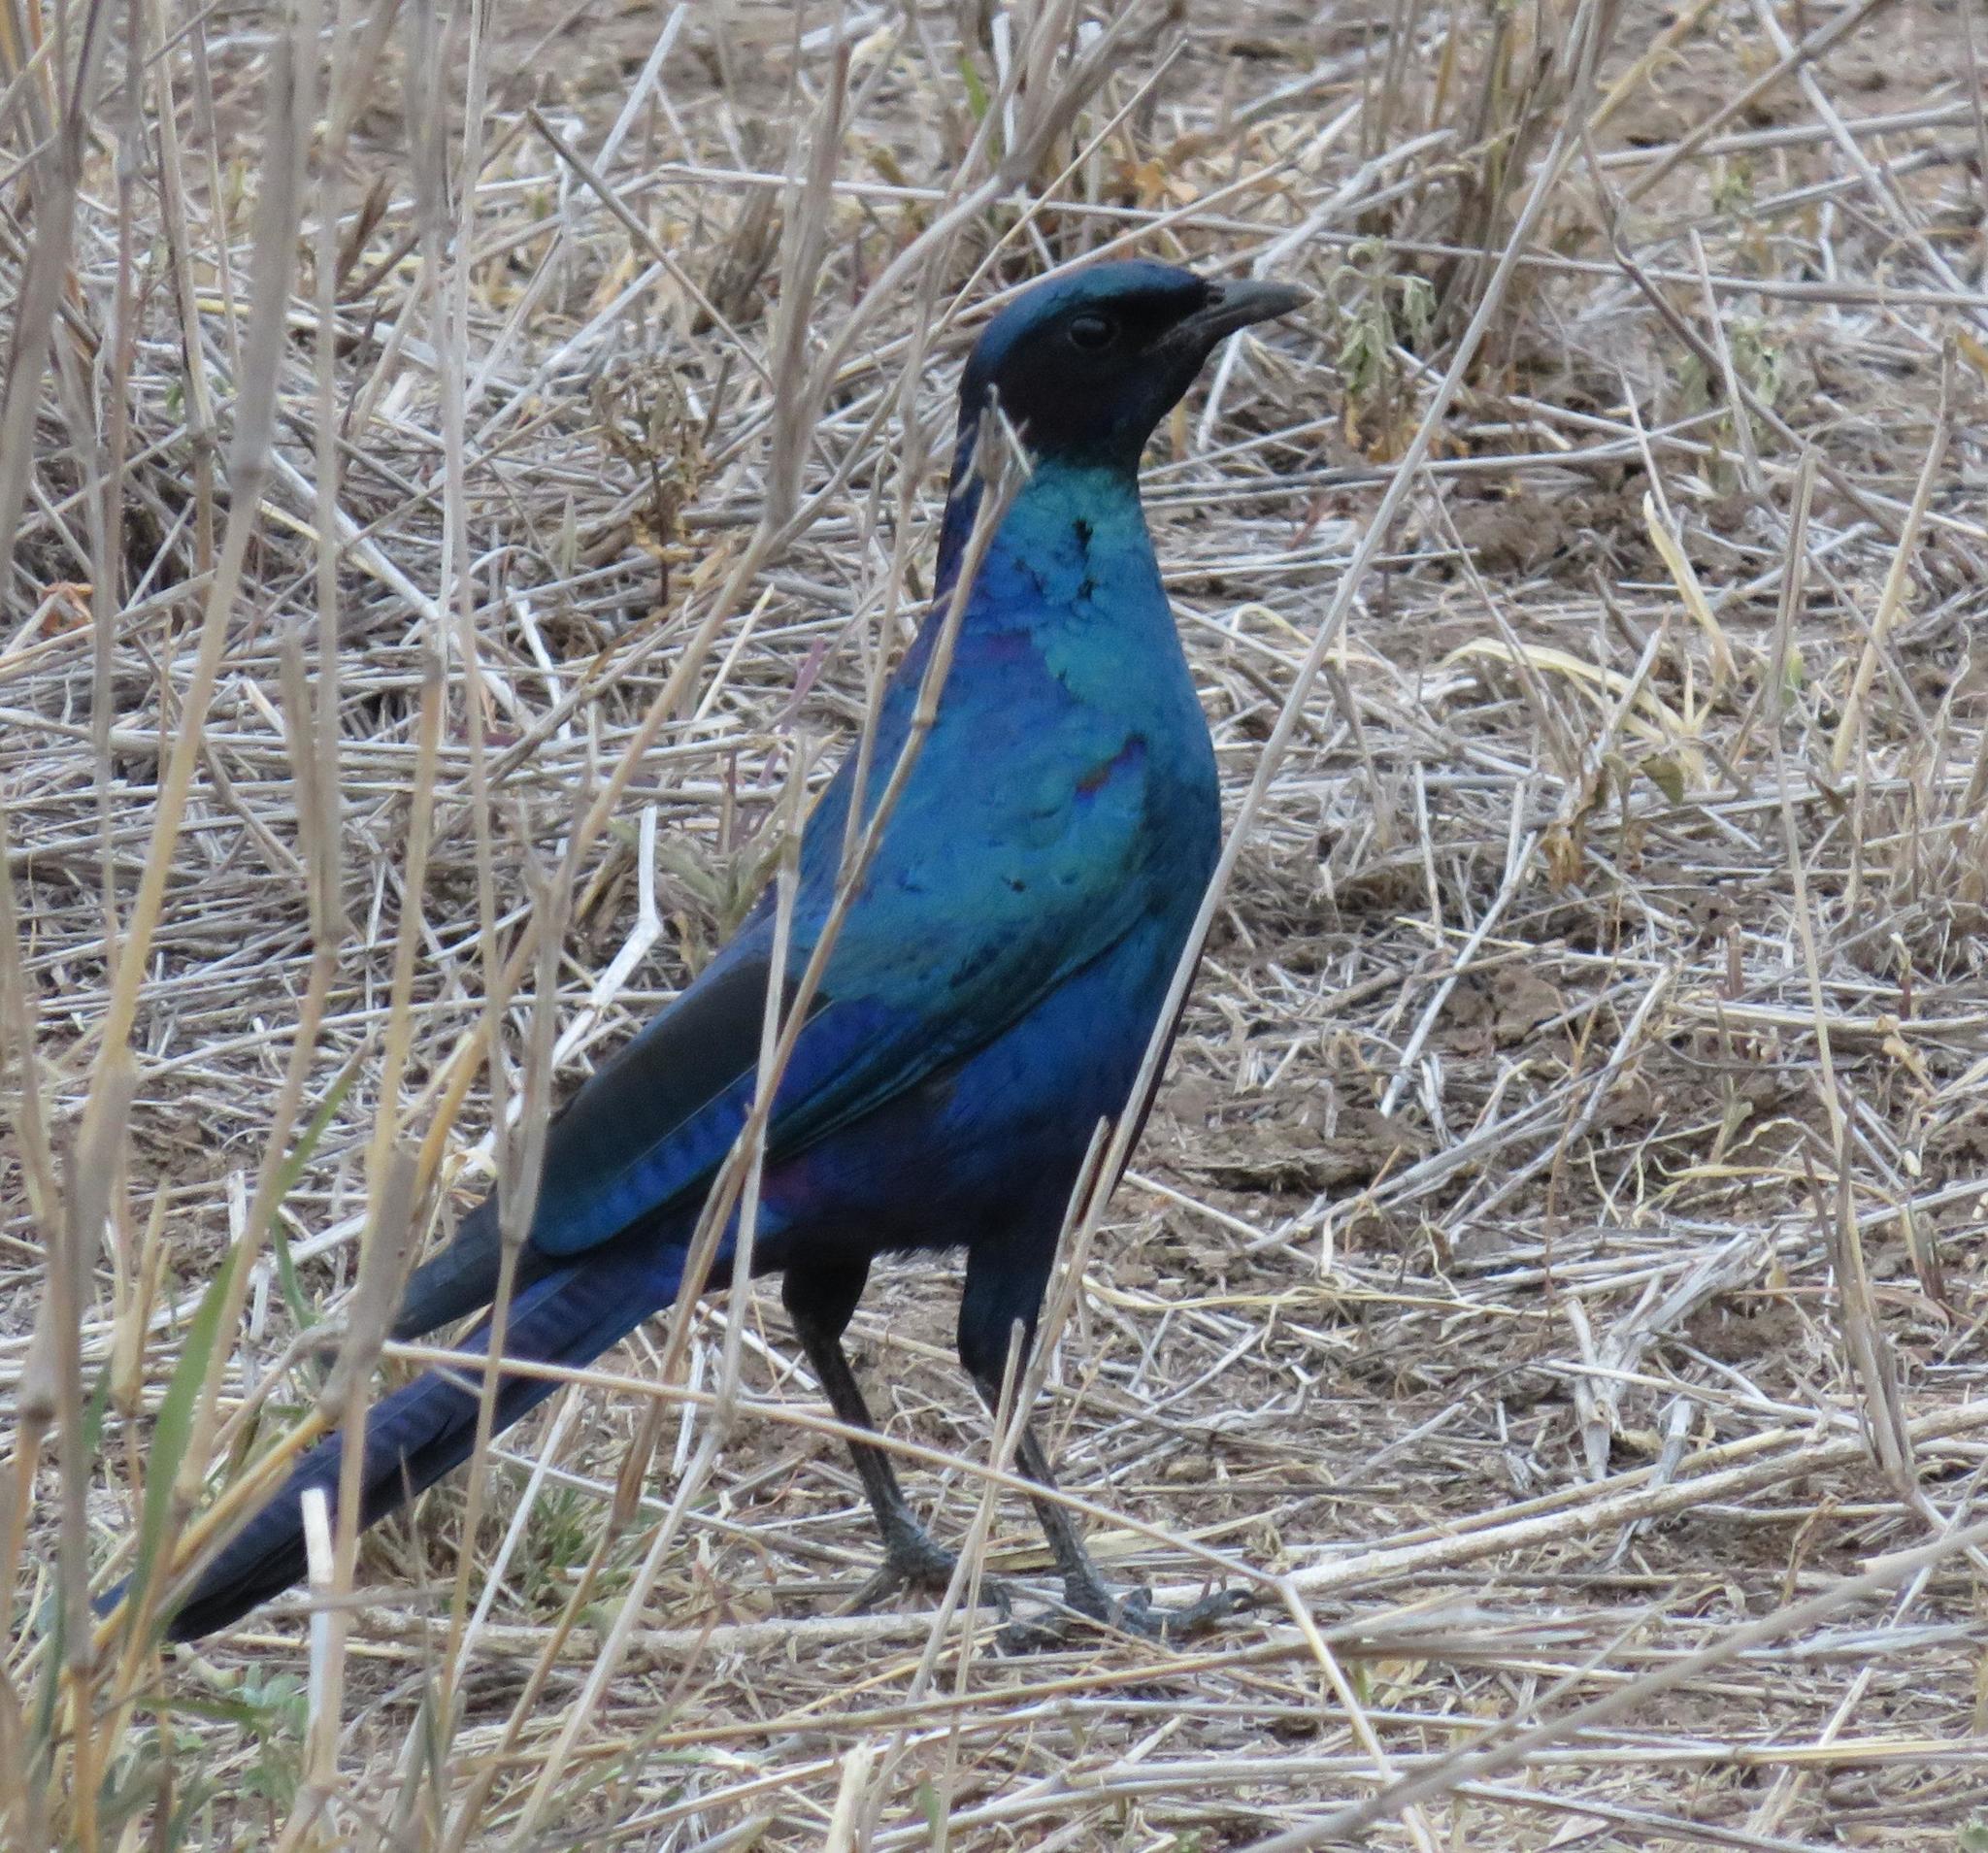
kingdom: Animalia
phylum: Chordata
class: Aves
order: Passeriformes
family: Sturnidae
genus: Lamprotornis
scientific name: Lamprotornis australis
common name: Burchell's starling
